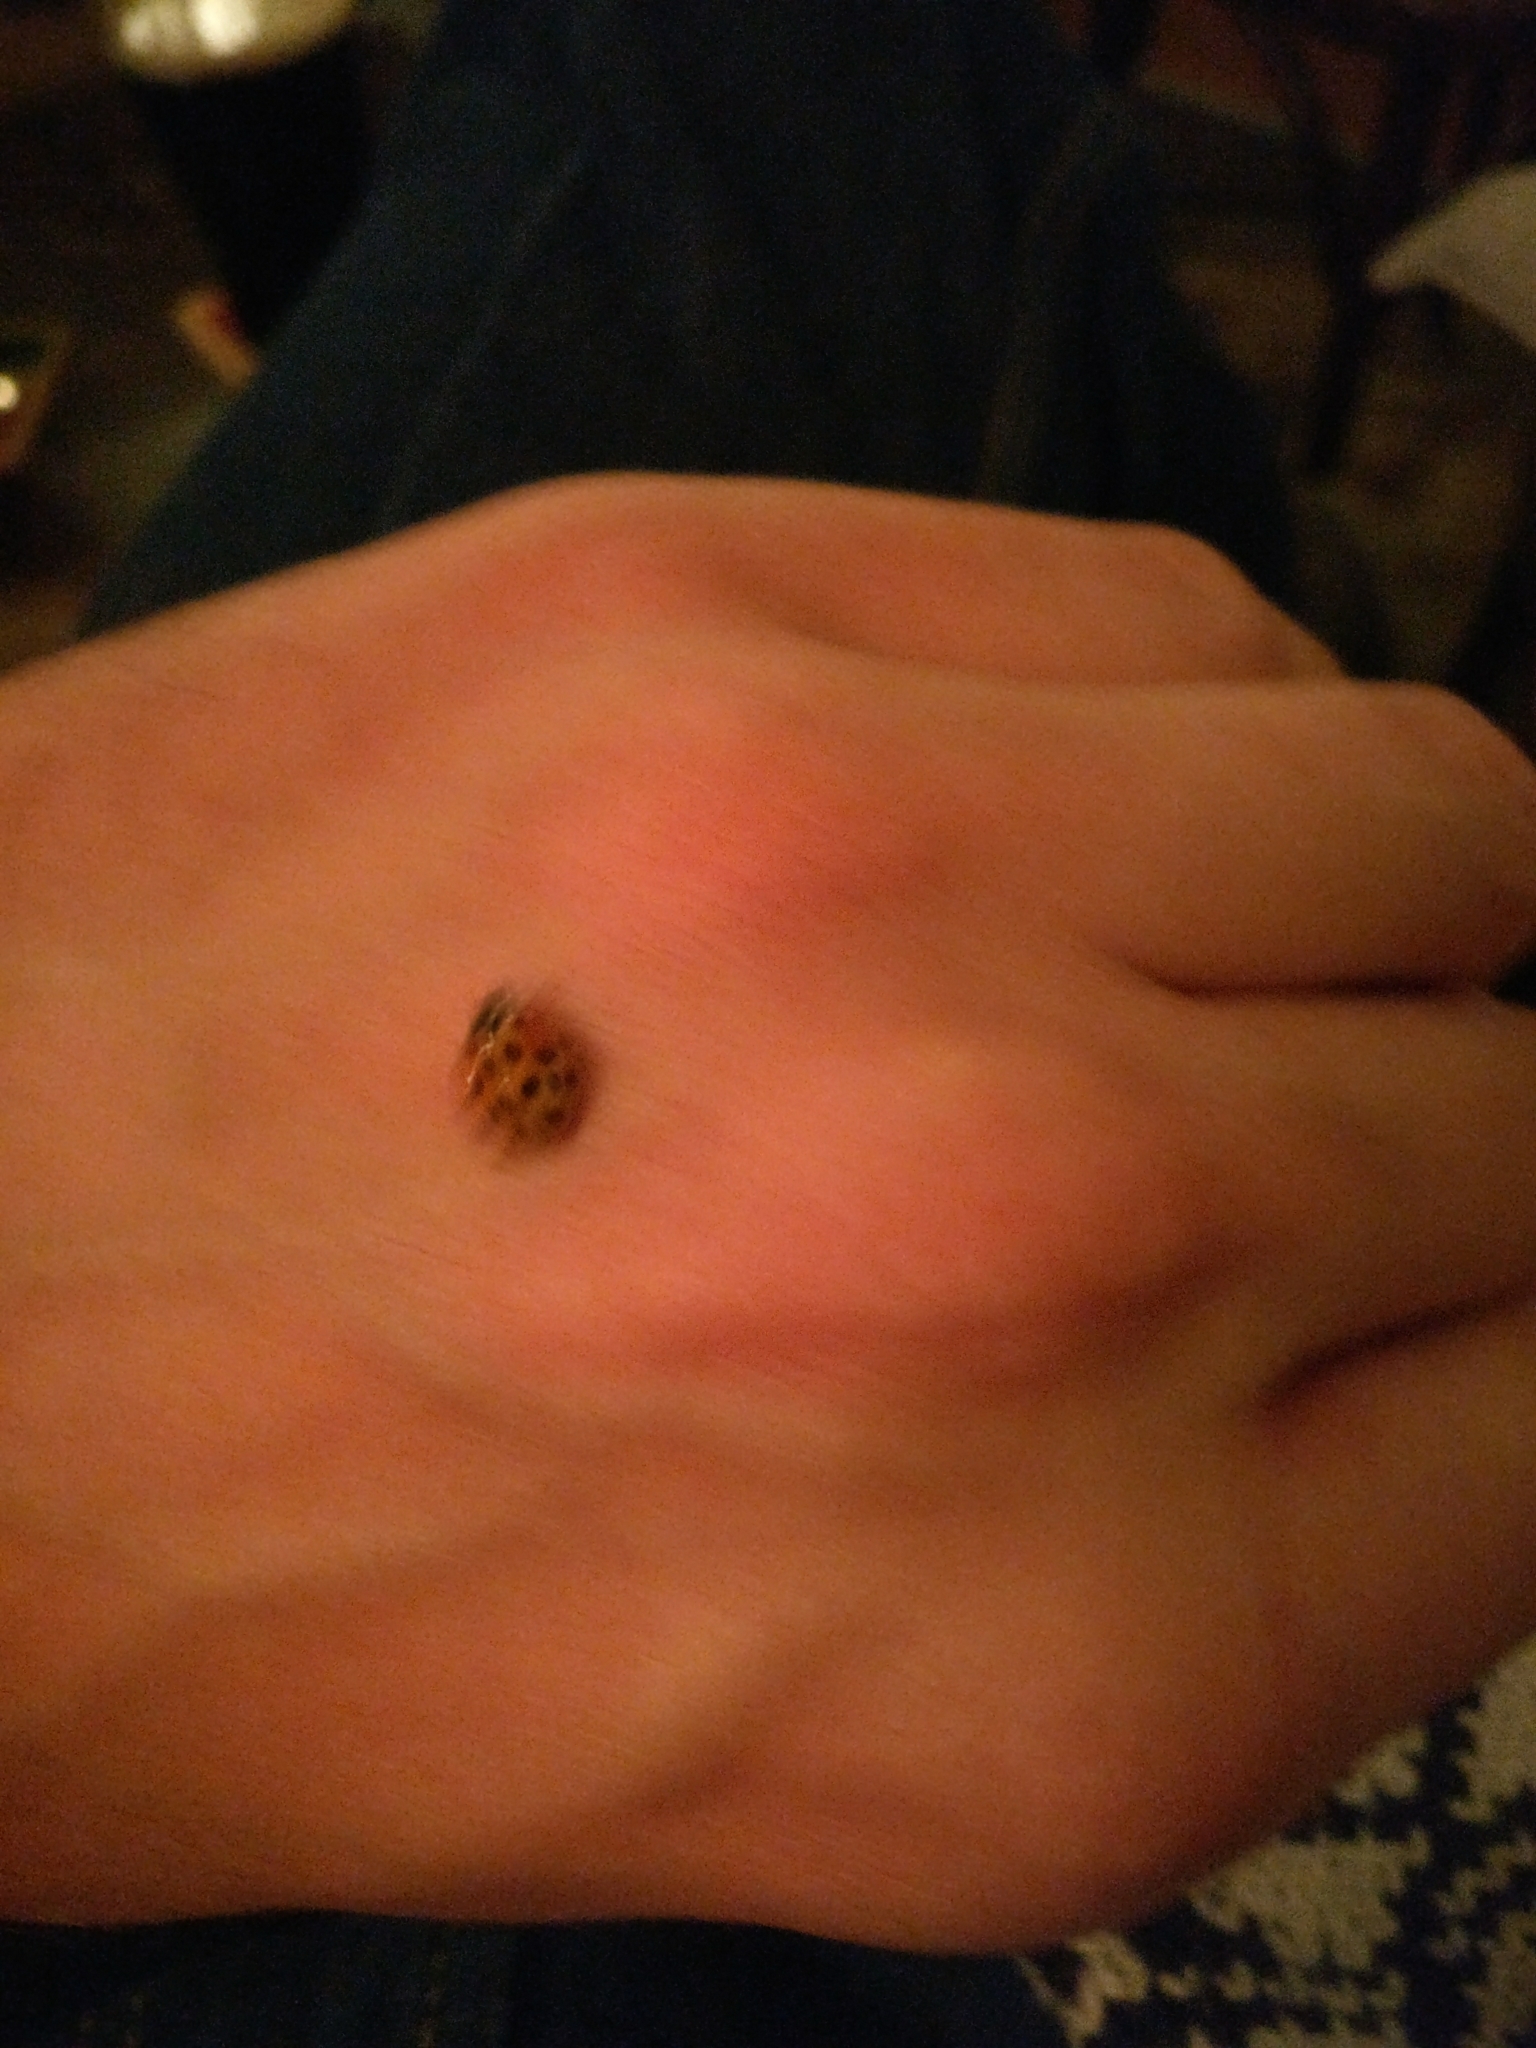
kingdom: Animalia
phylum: Arthropoda
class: Insecta
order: Coleoptera
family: Coccinellidae
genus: Harmonia
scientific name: Harmonia axyridis
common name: Harlequin ladybird
